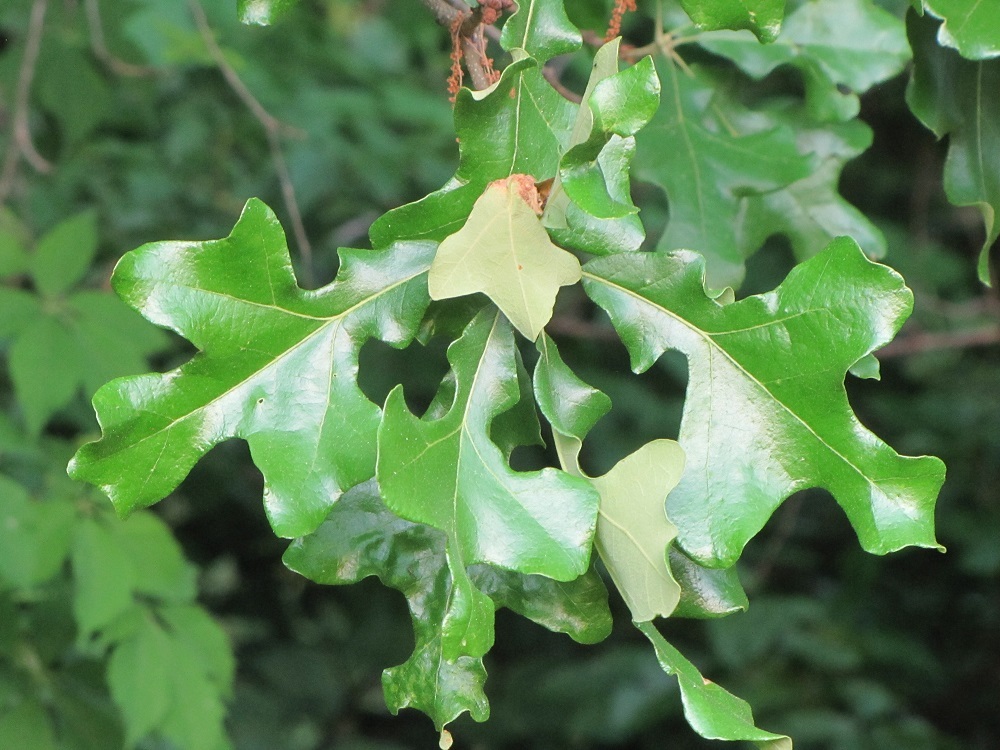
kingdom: Plantae
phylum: Tracheophyta
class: Magnoliopsida
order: Fagales
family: Fagaceae
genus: Quercus
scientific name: Quercus stellata
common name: Post oak
